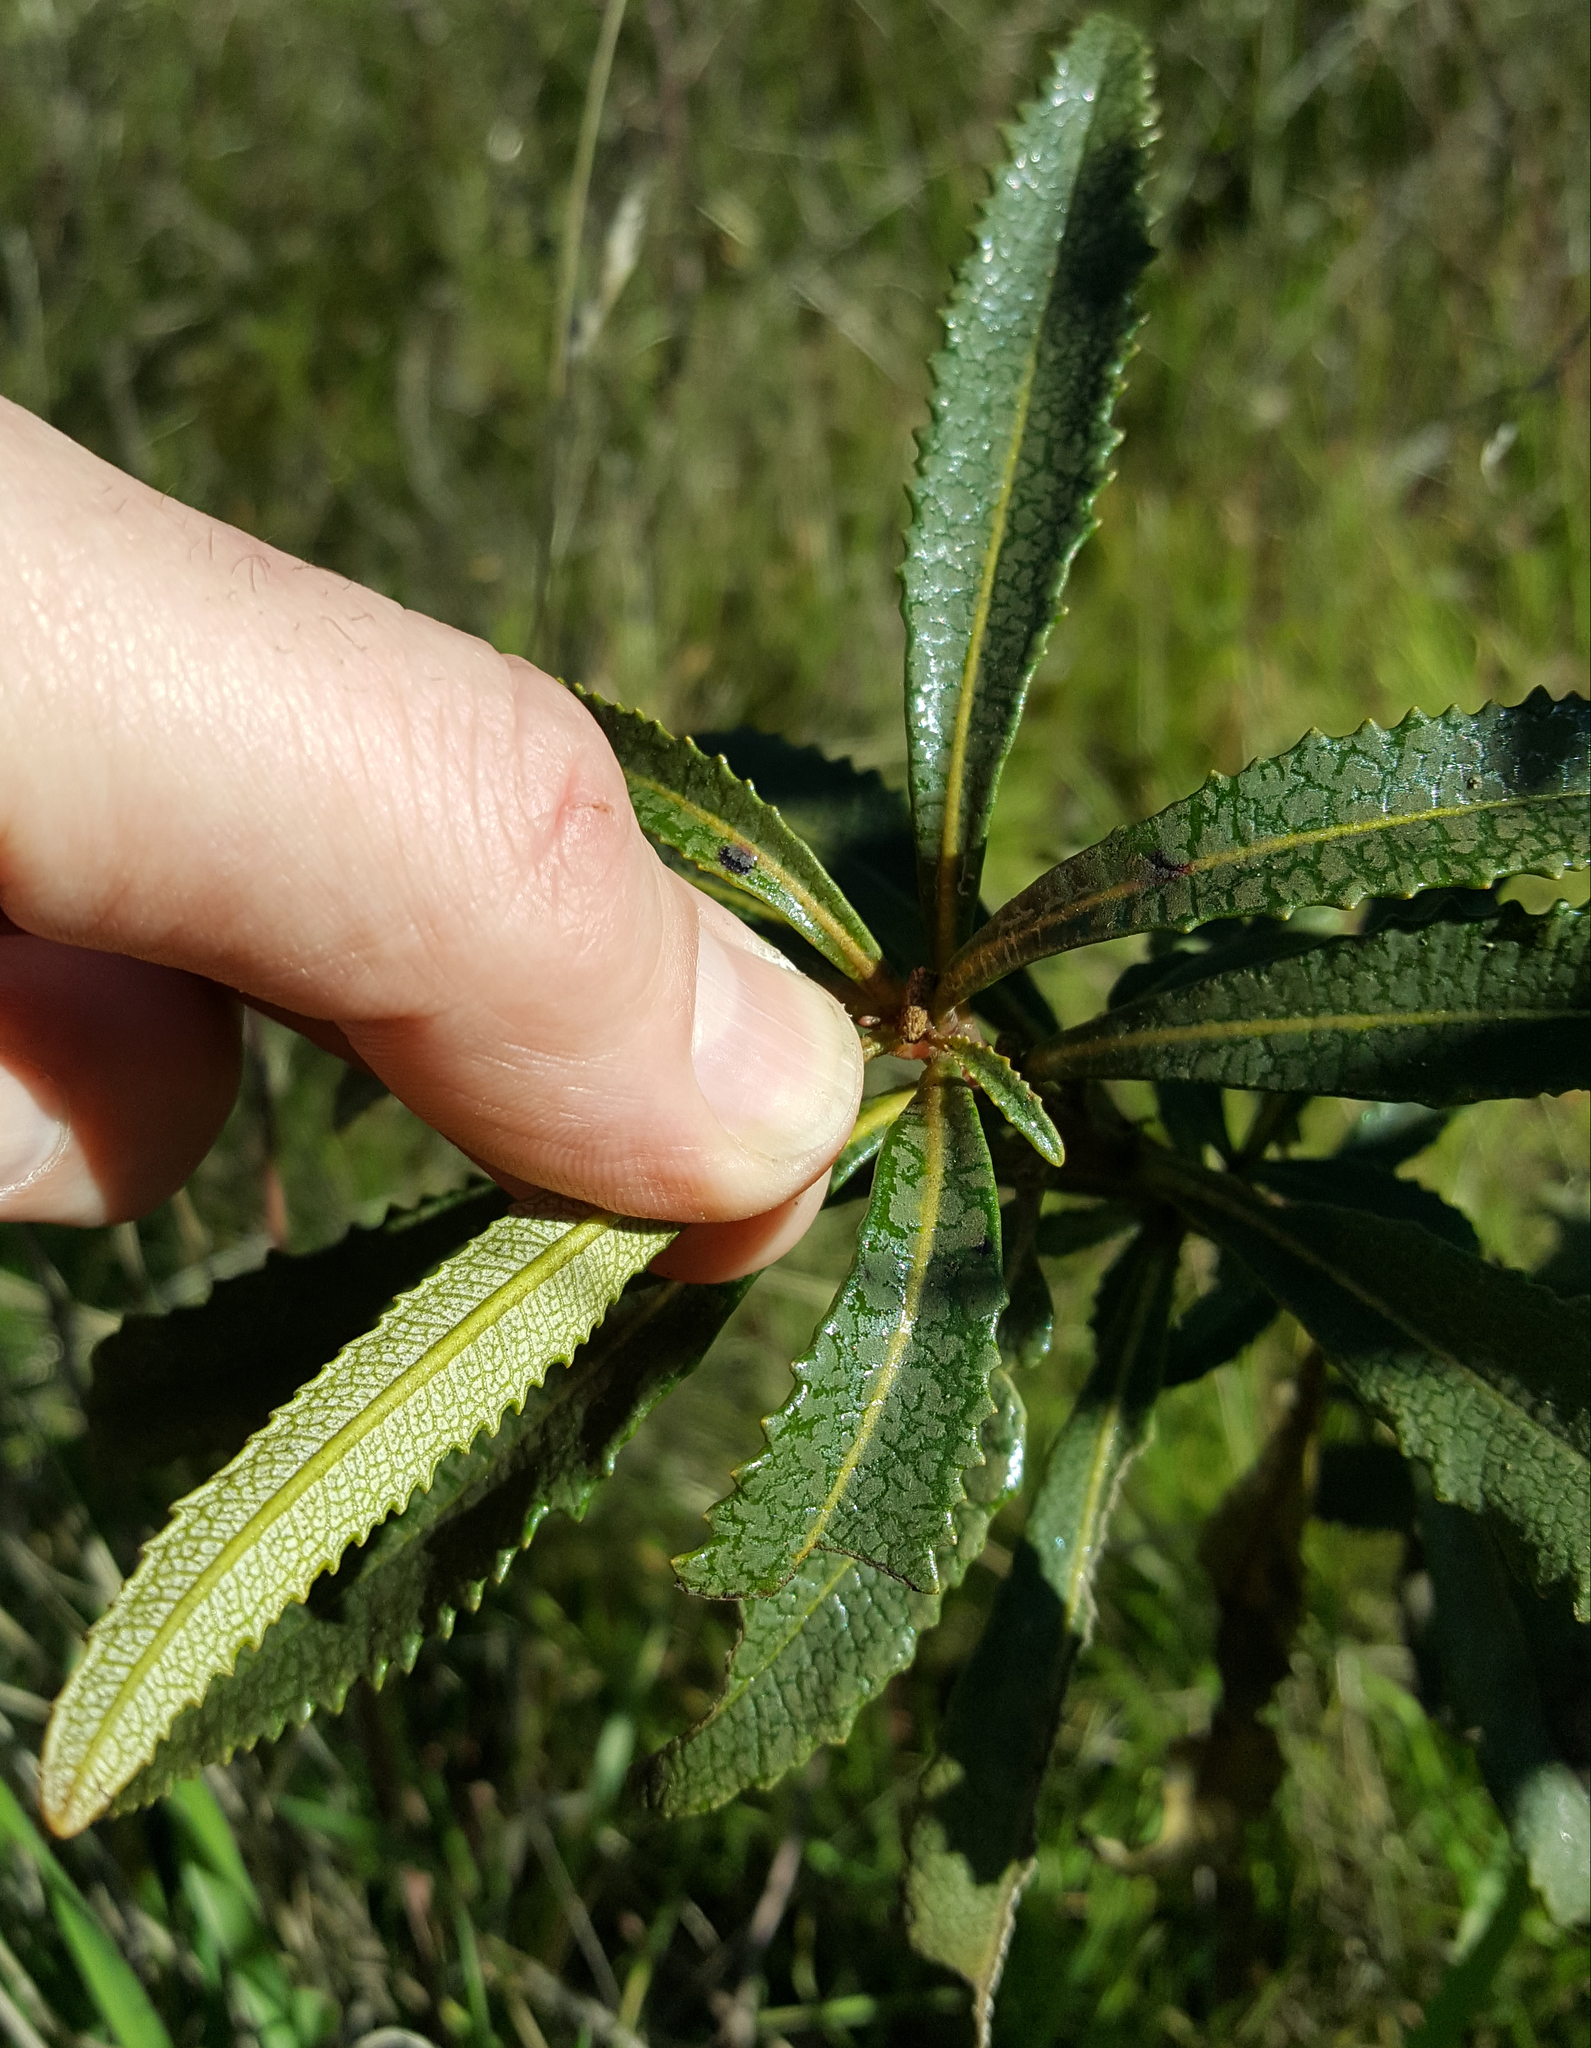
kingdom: Plantae
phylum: Tracheophyta
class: Magnoliopsida
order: Boraginales
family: Namaceae
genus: Eriodictyon
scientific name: Eriodictyon californicum
